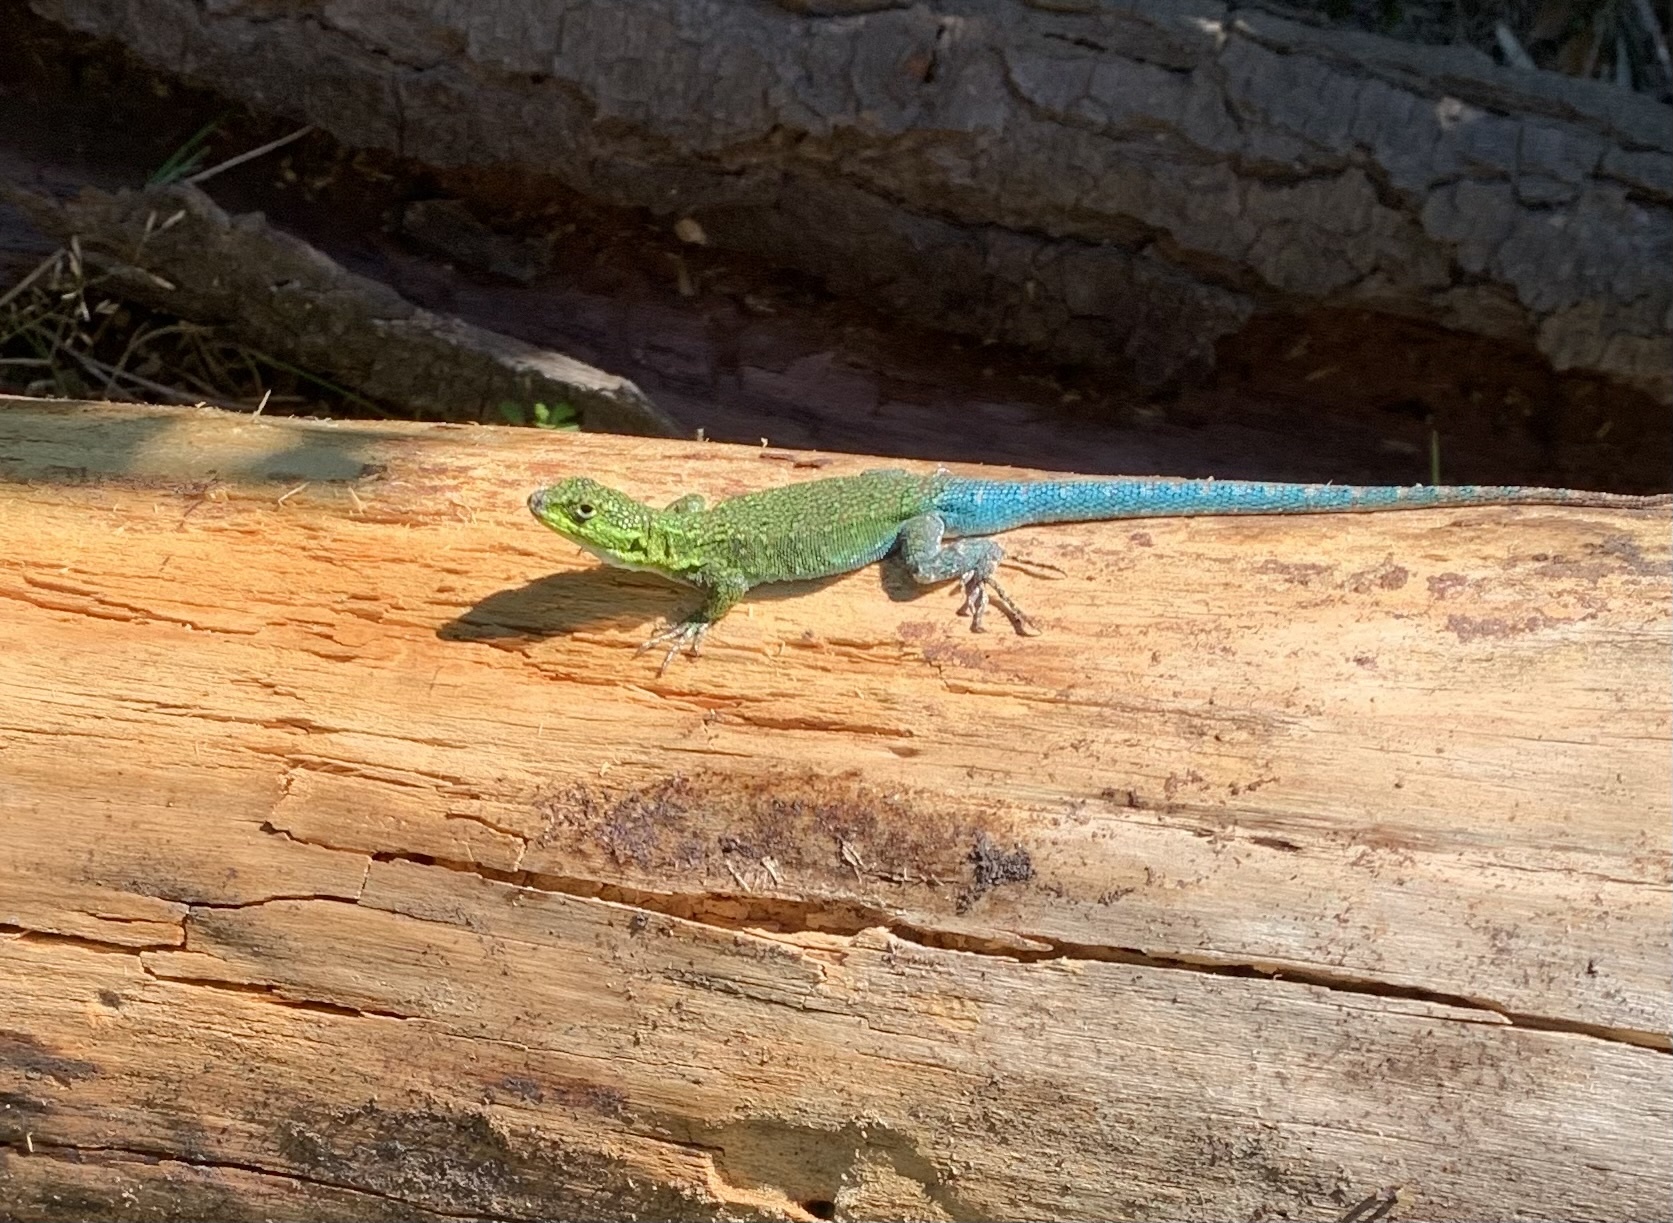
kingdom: Animalia
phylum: Chordata
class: Squamata
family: Liolaemidae
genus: Liolaemus
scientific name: Liolaemus tenuis
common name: Thin tree iguana
